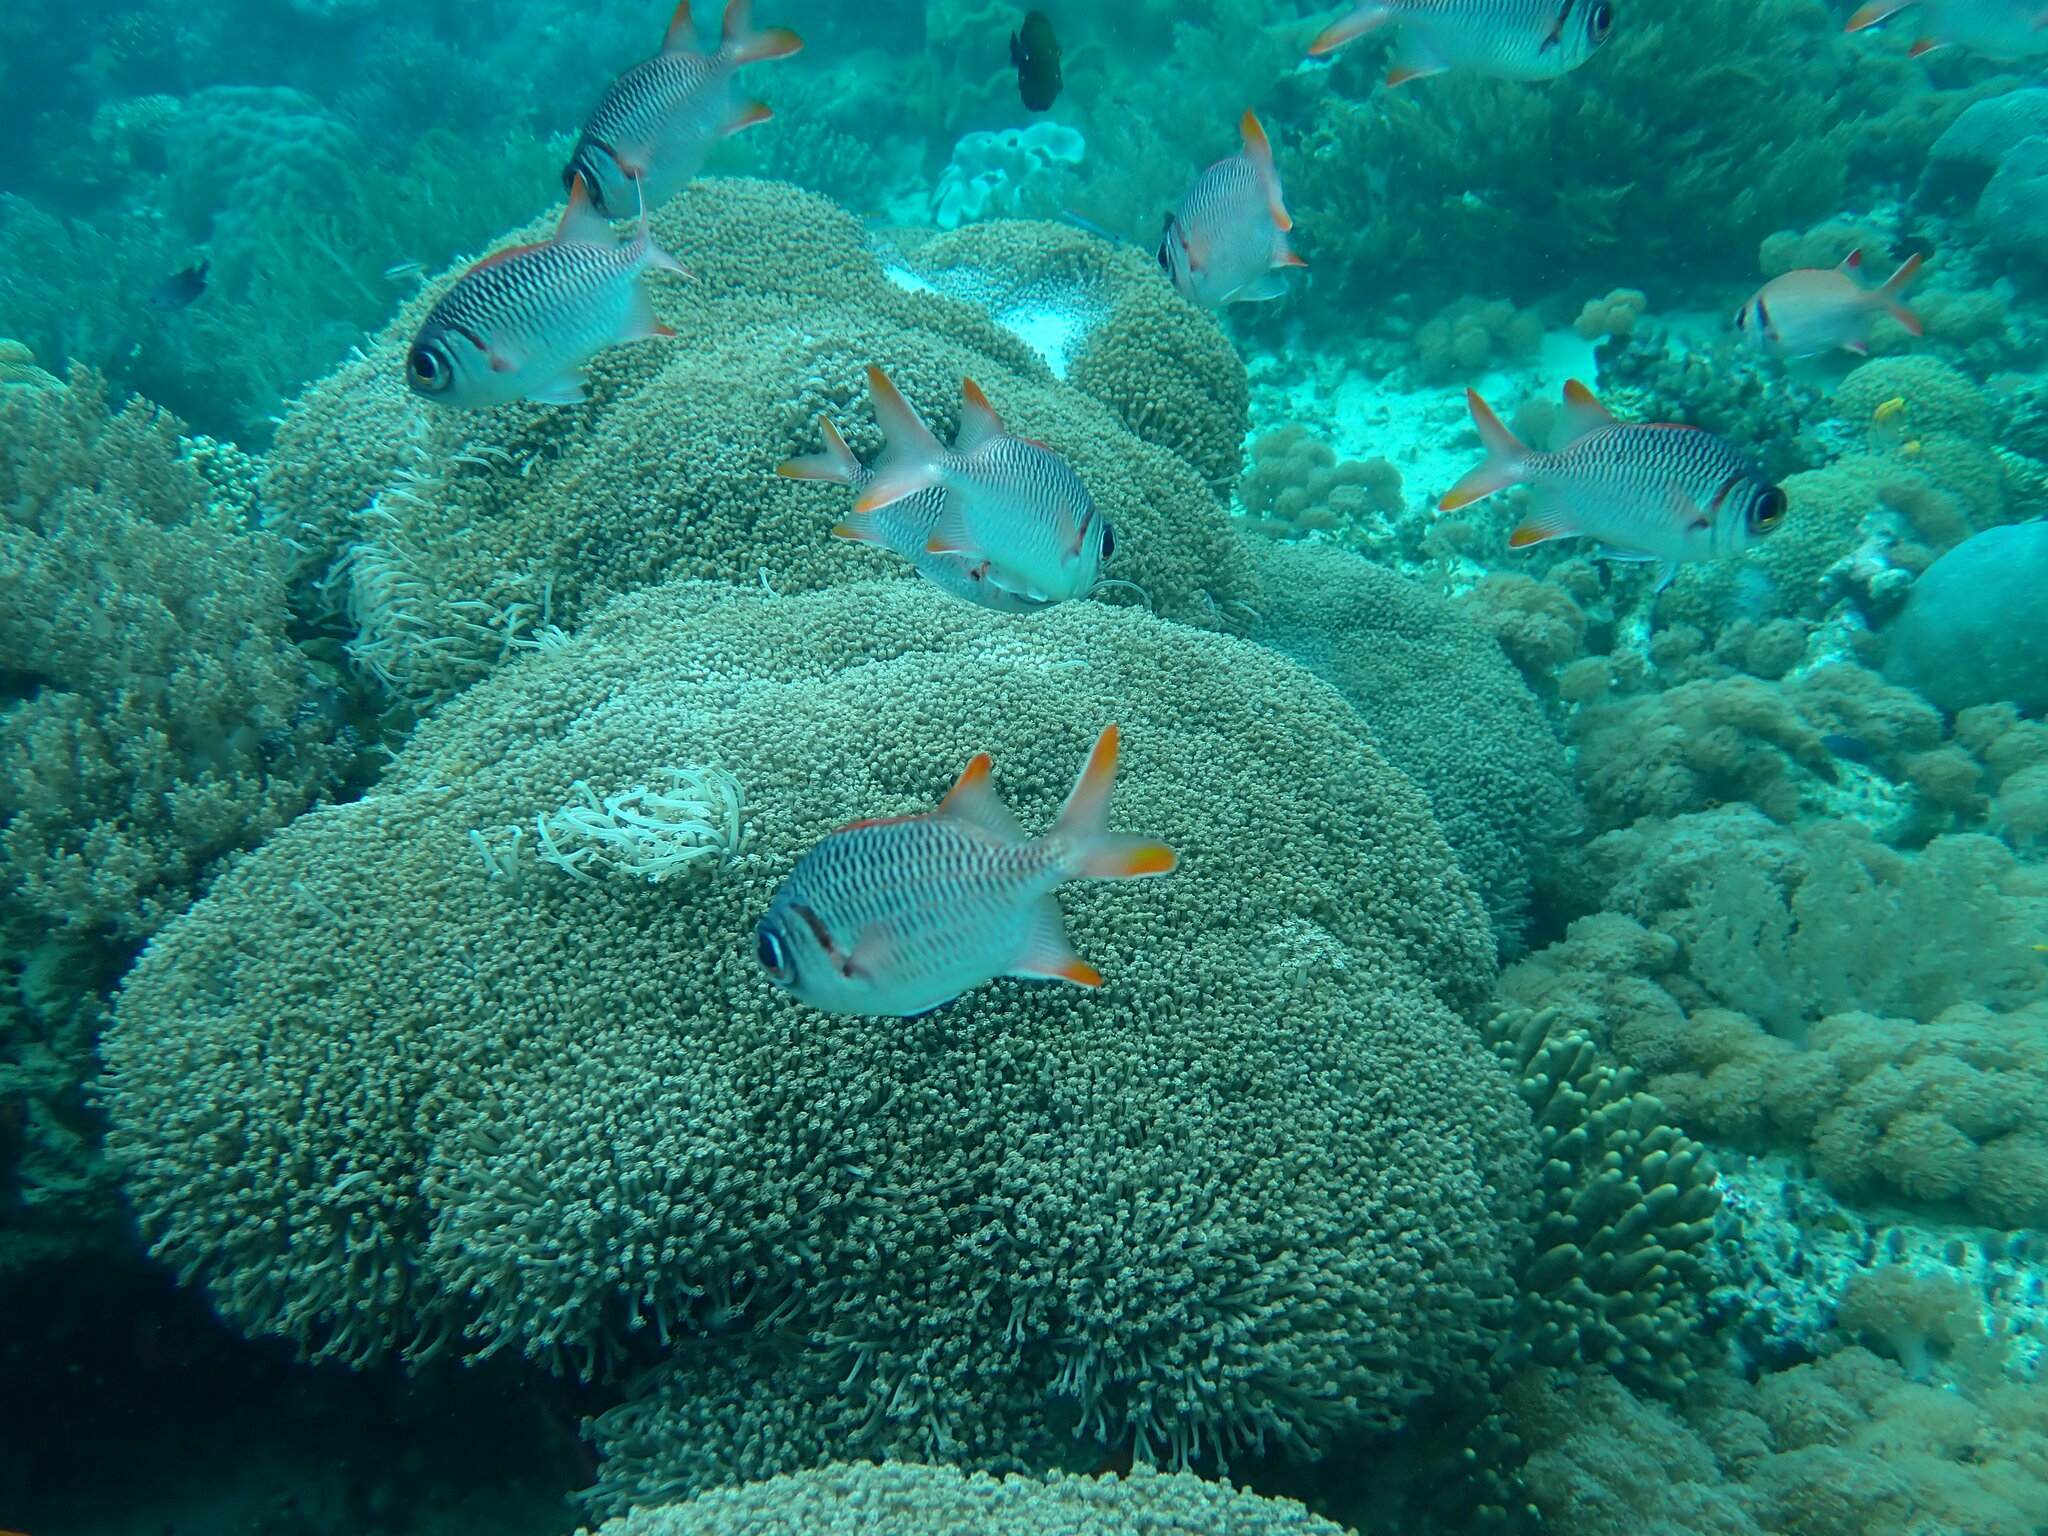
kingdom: Animalia
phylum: Chordata
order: Beryciformes
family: Holocentridae
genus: Myripristis
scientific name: Myripristis violacea
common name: Lattice soldierfish
